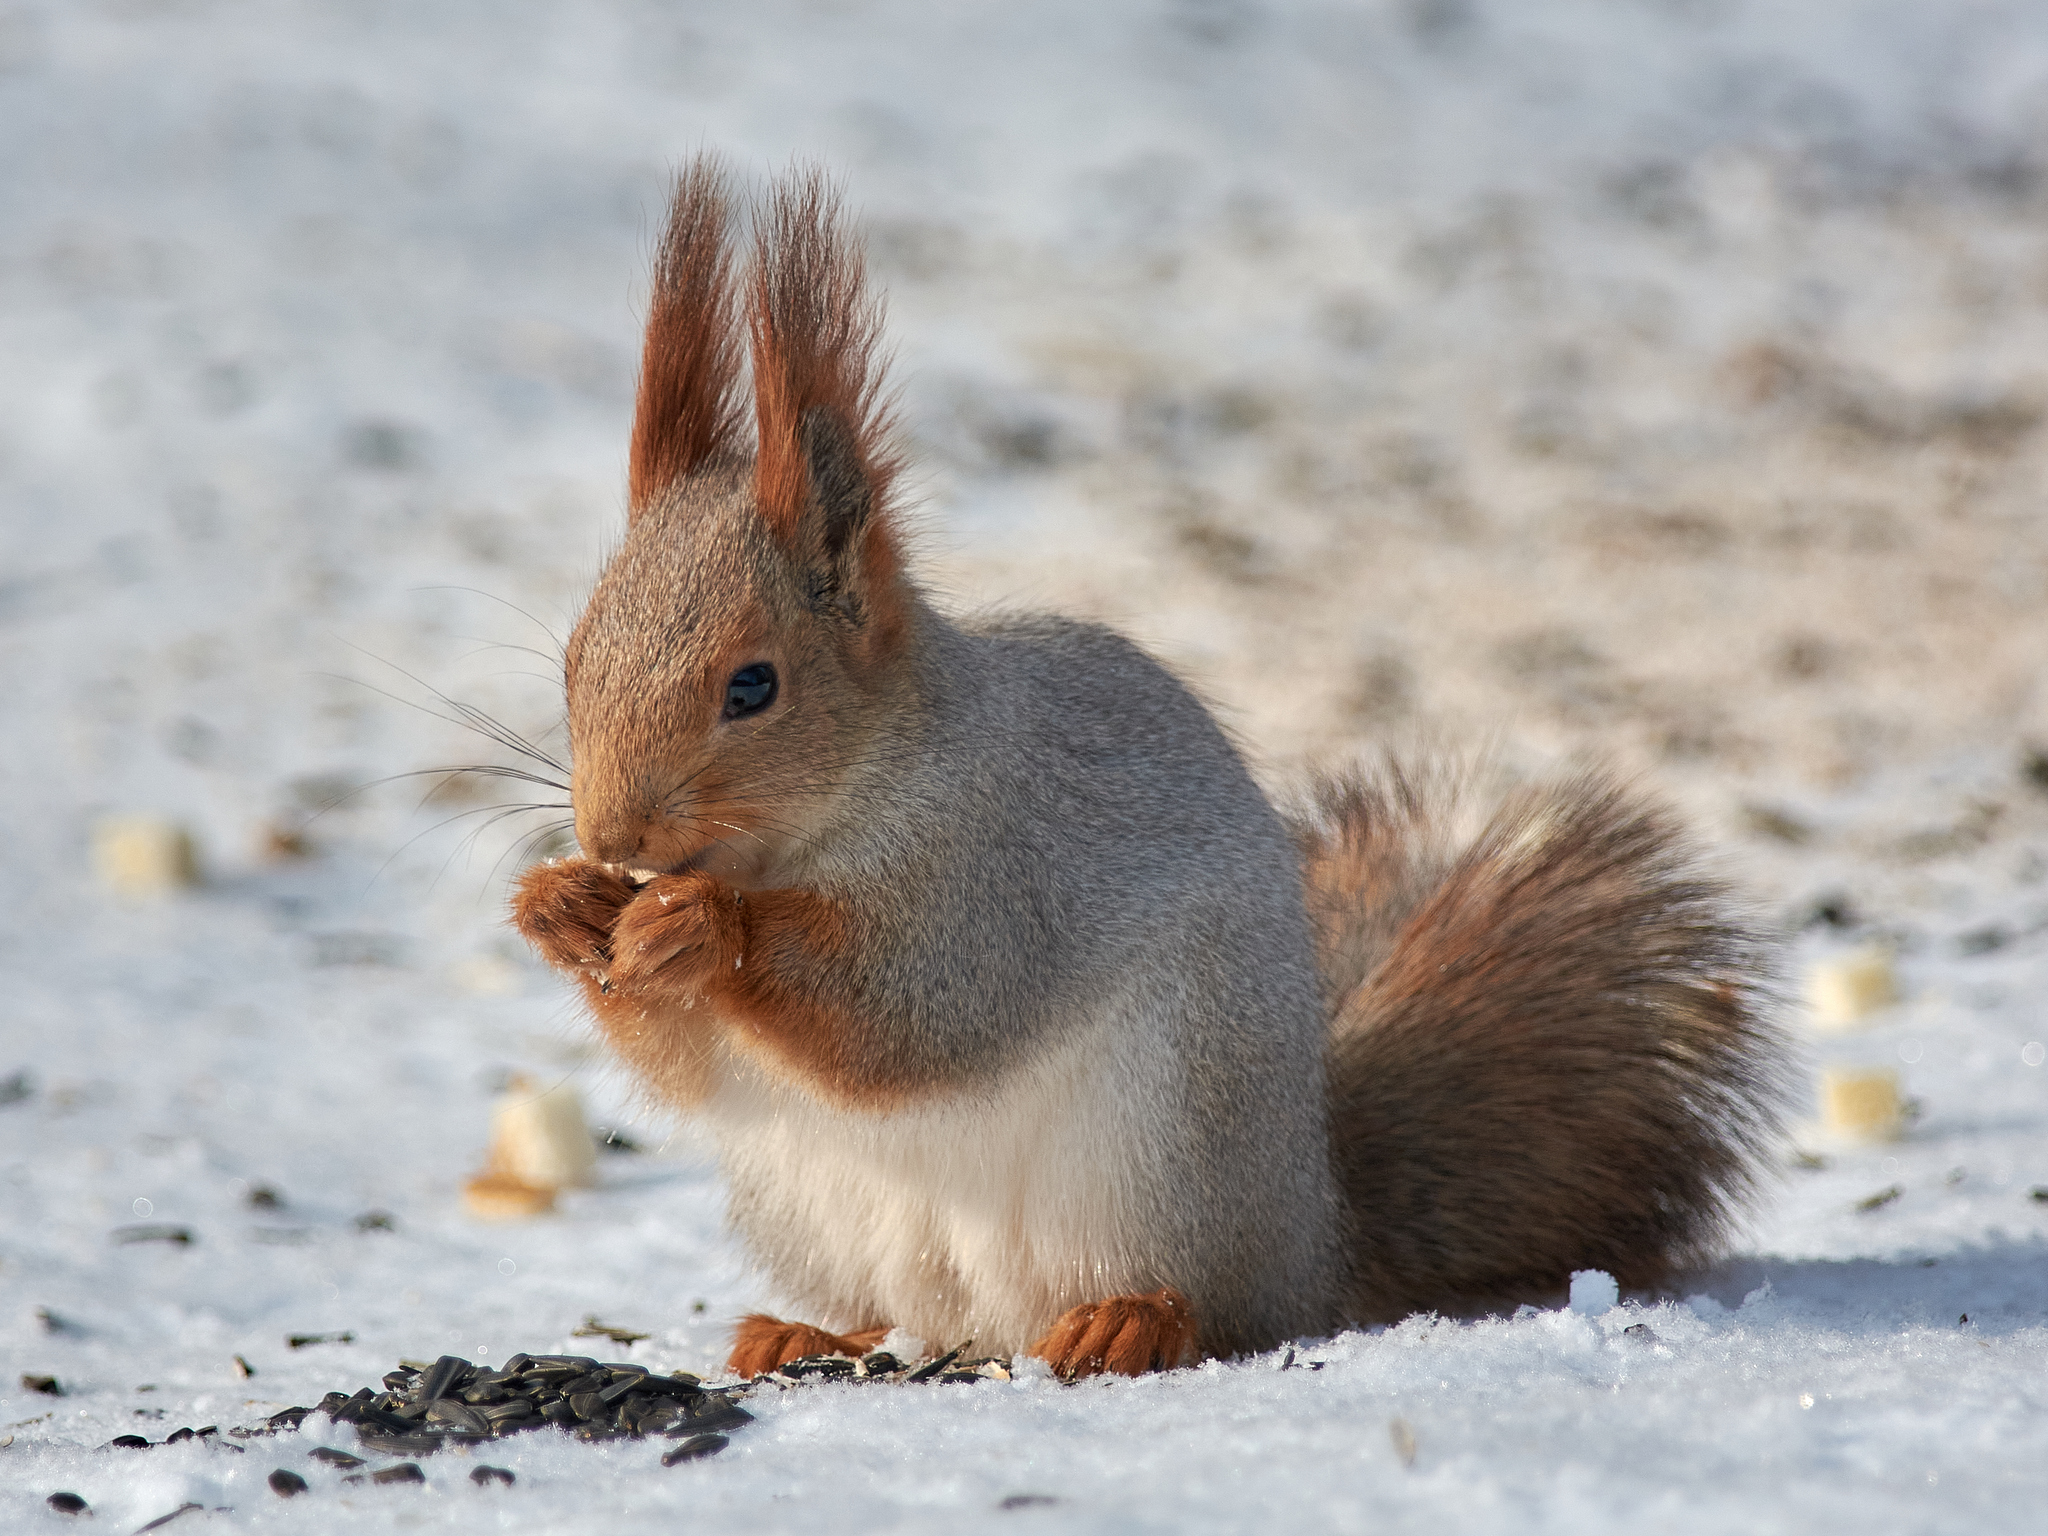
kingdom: Animalia
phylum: Chordata
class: Mammalia
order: Rodentia
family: Sciuridae
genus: Sciurus
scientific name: Sciurus vulgaris
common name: Eurasian red squirrel
